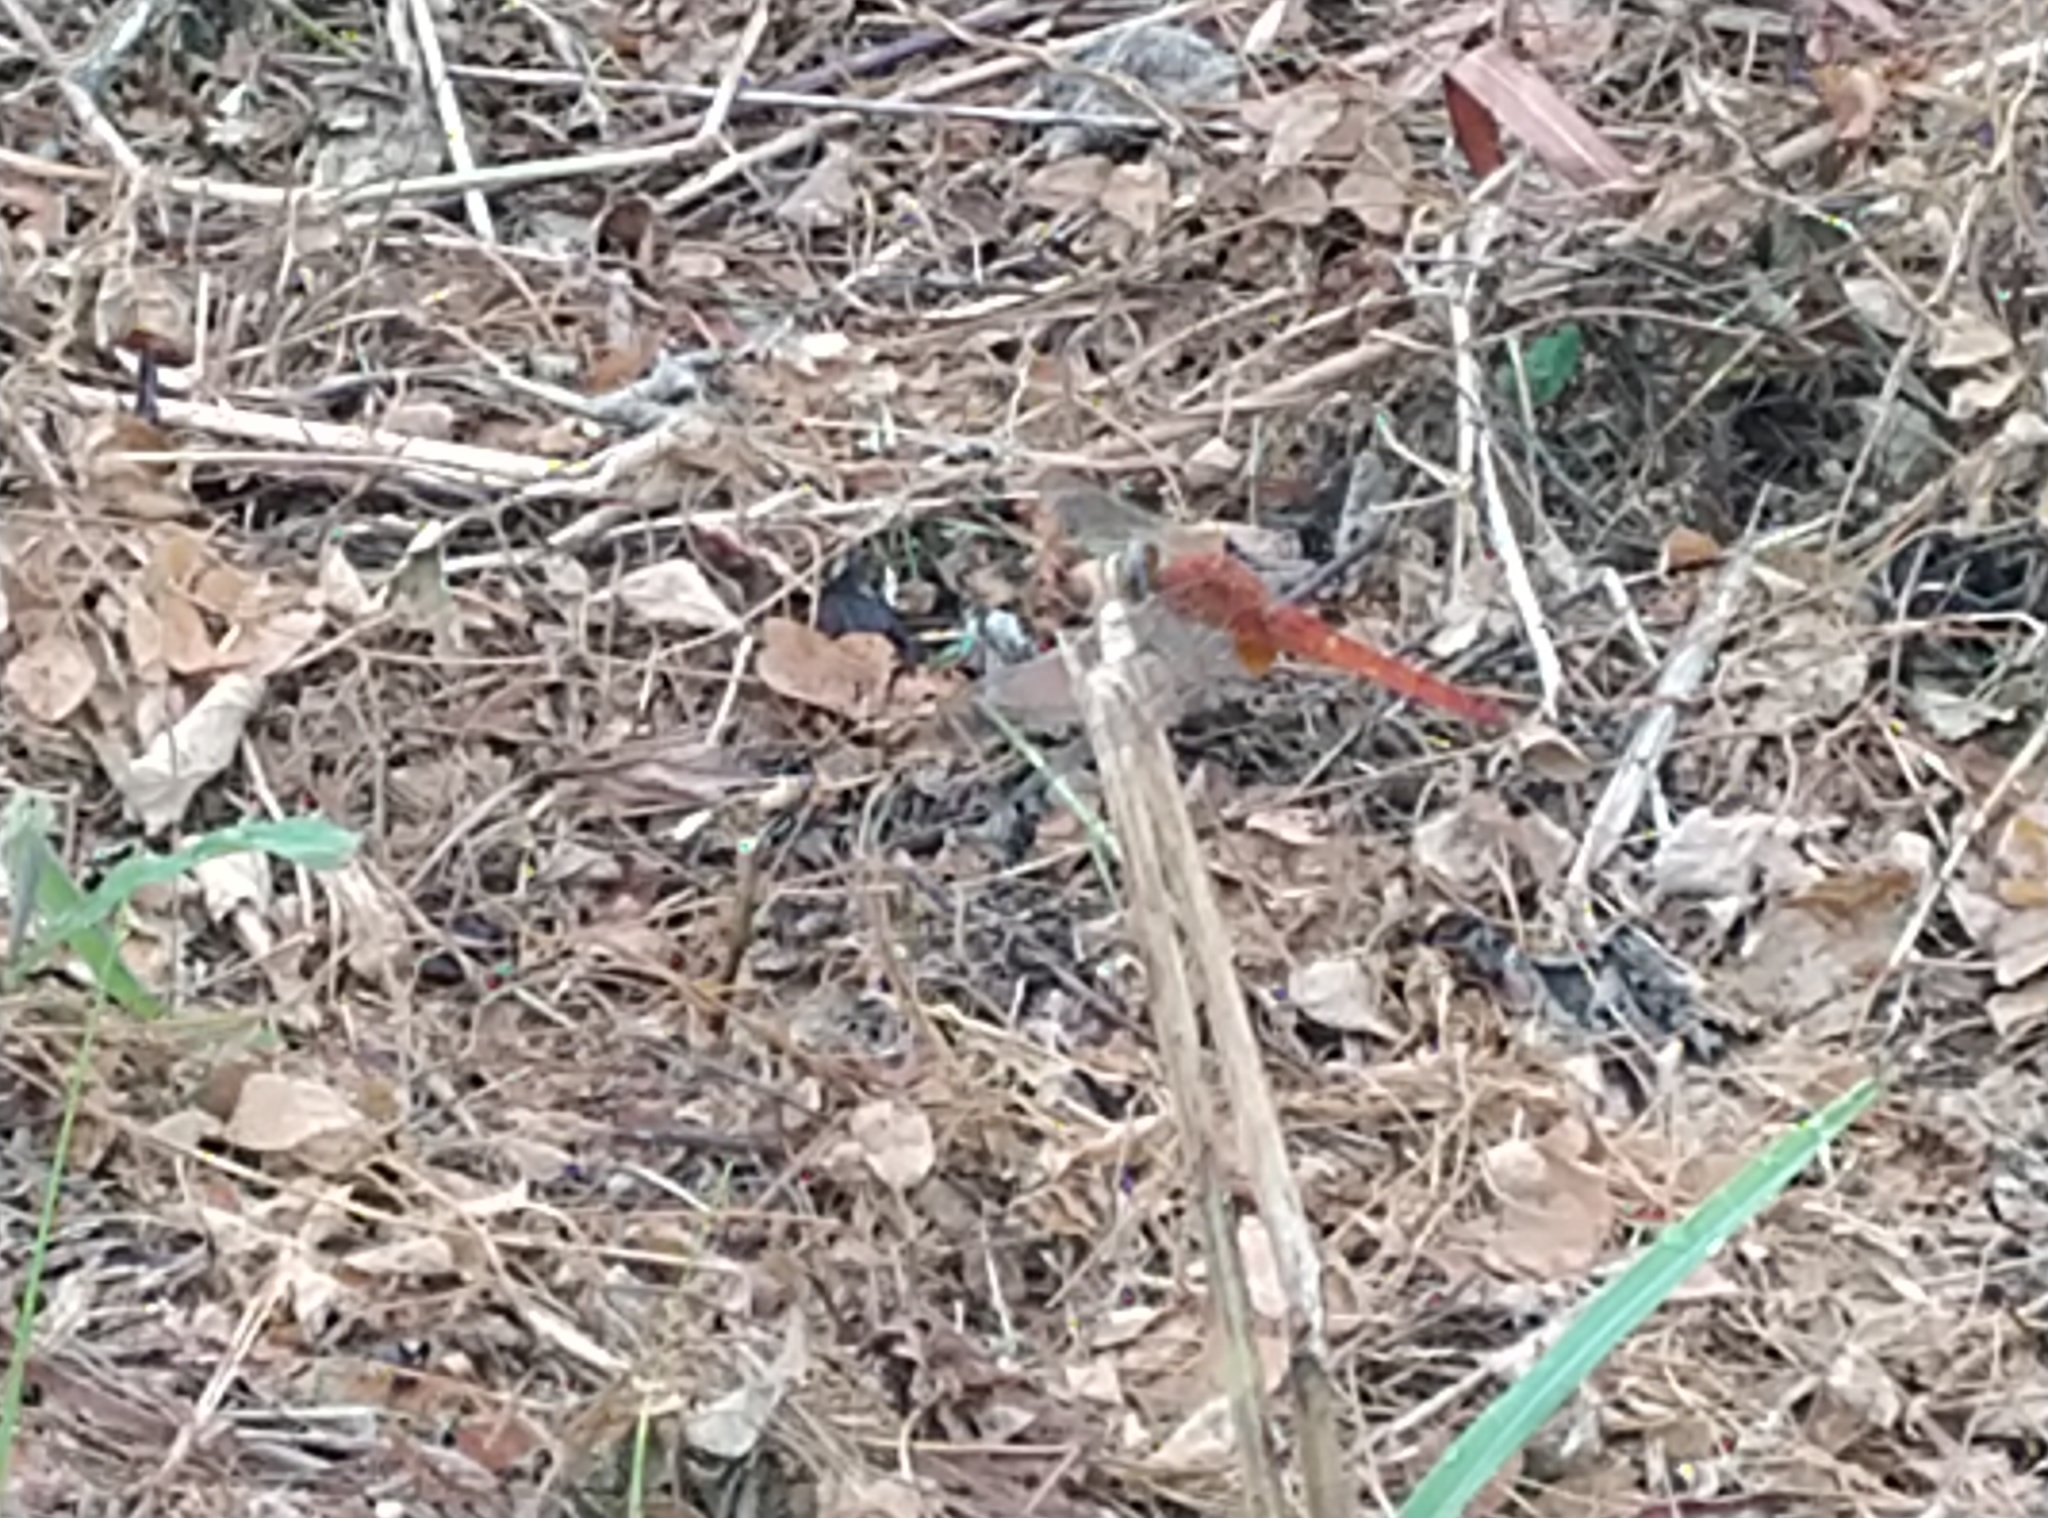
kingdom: Animalia
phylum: Arthropoda
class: Insecta
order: Odonata
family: Libellulidae
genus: Crocothemis
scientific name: Crocothemis servilia
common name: Scarlet skimmer
